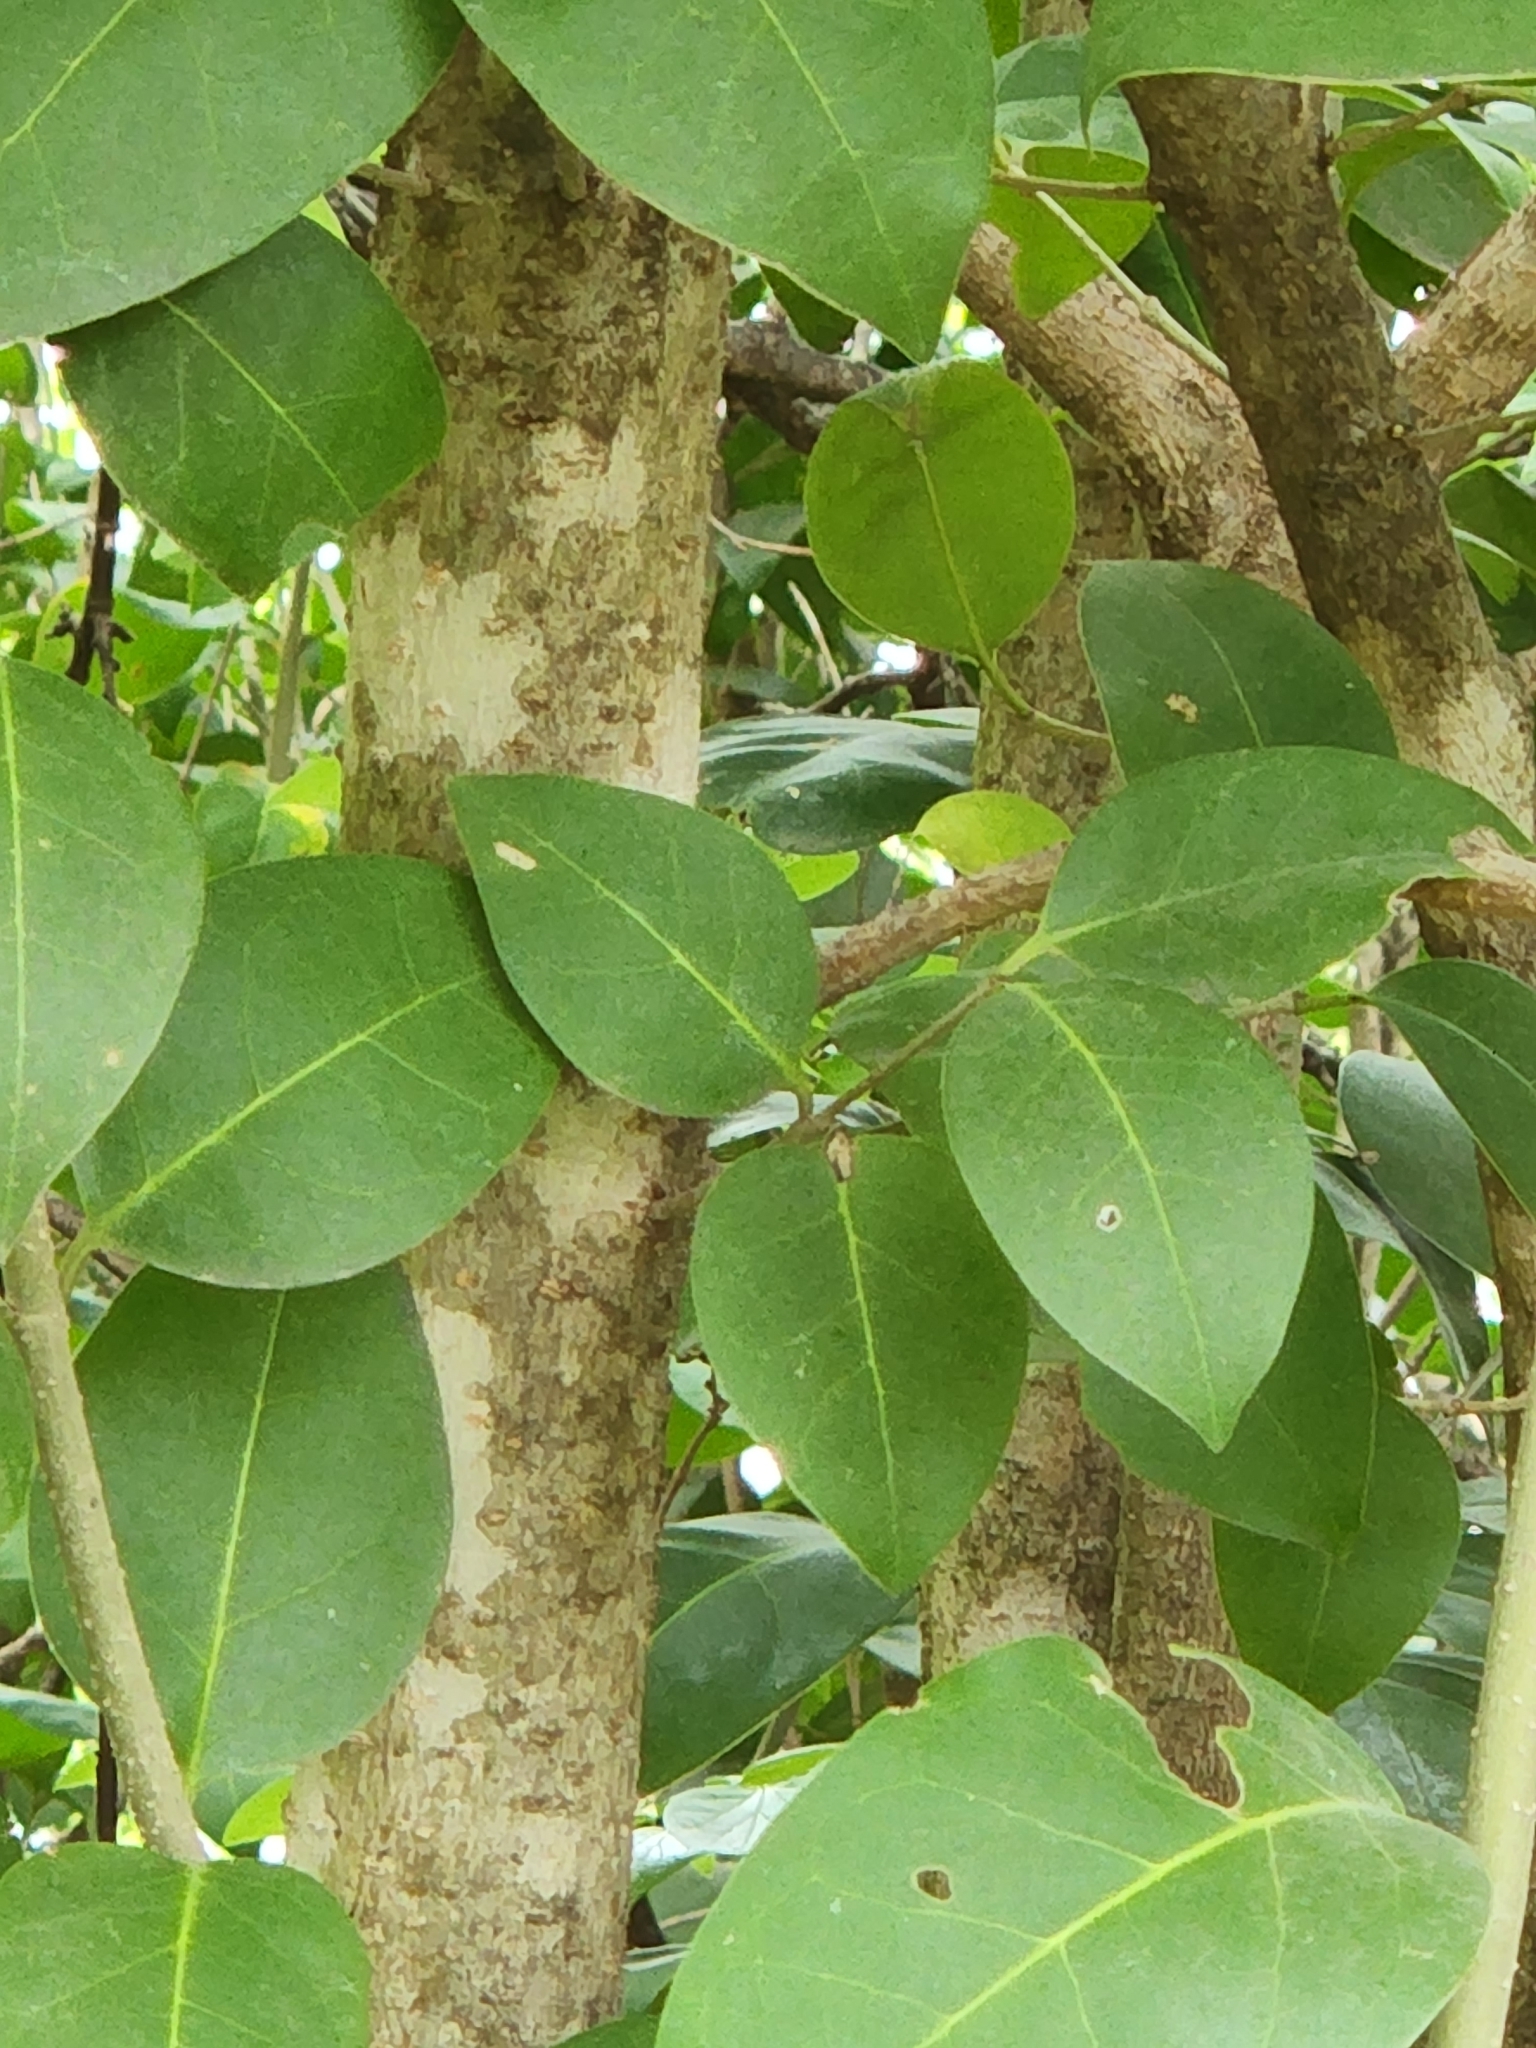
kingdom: Plantae
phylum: Tracheophyta
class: Magnoliopsida
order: Lamiales
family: Oleaceae
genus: Ligustrum
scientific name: Ligustrum lucidum
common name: Glossy privet
